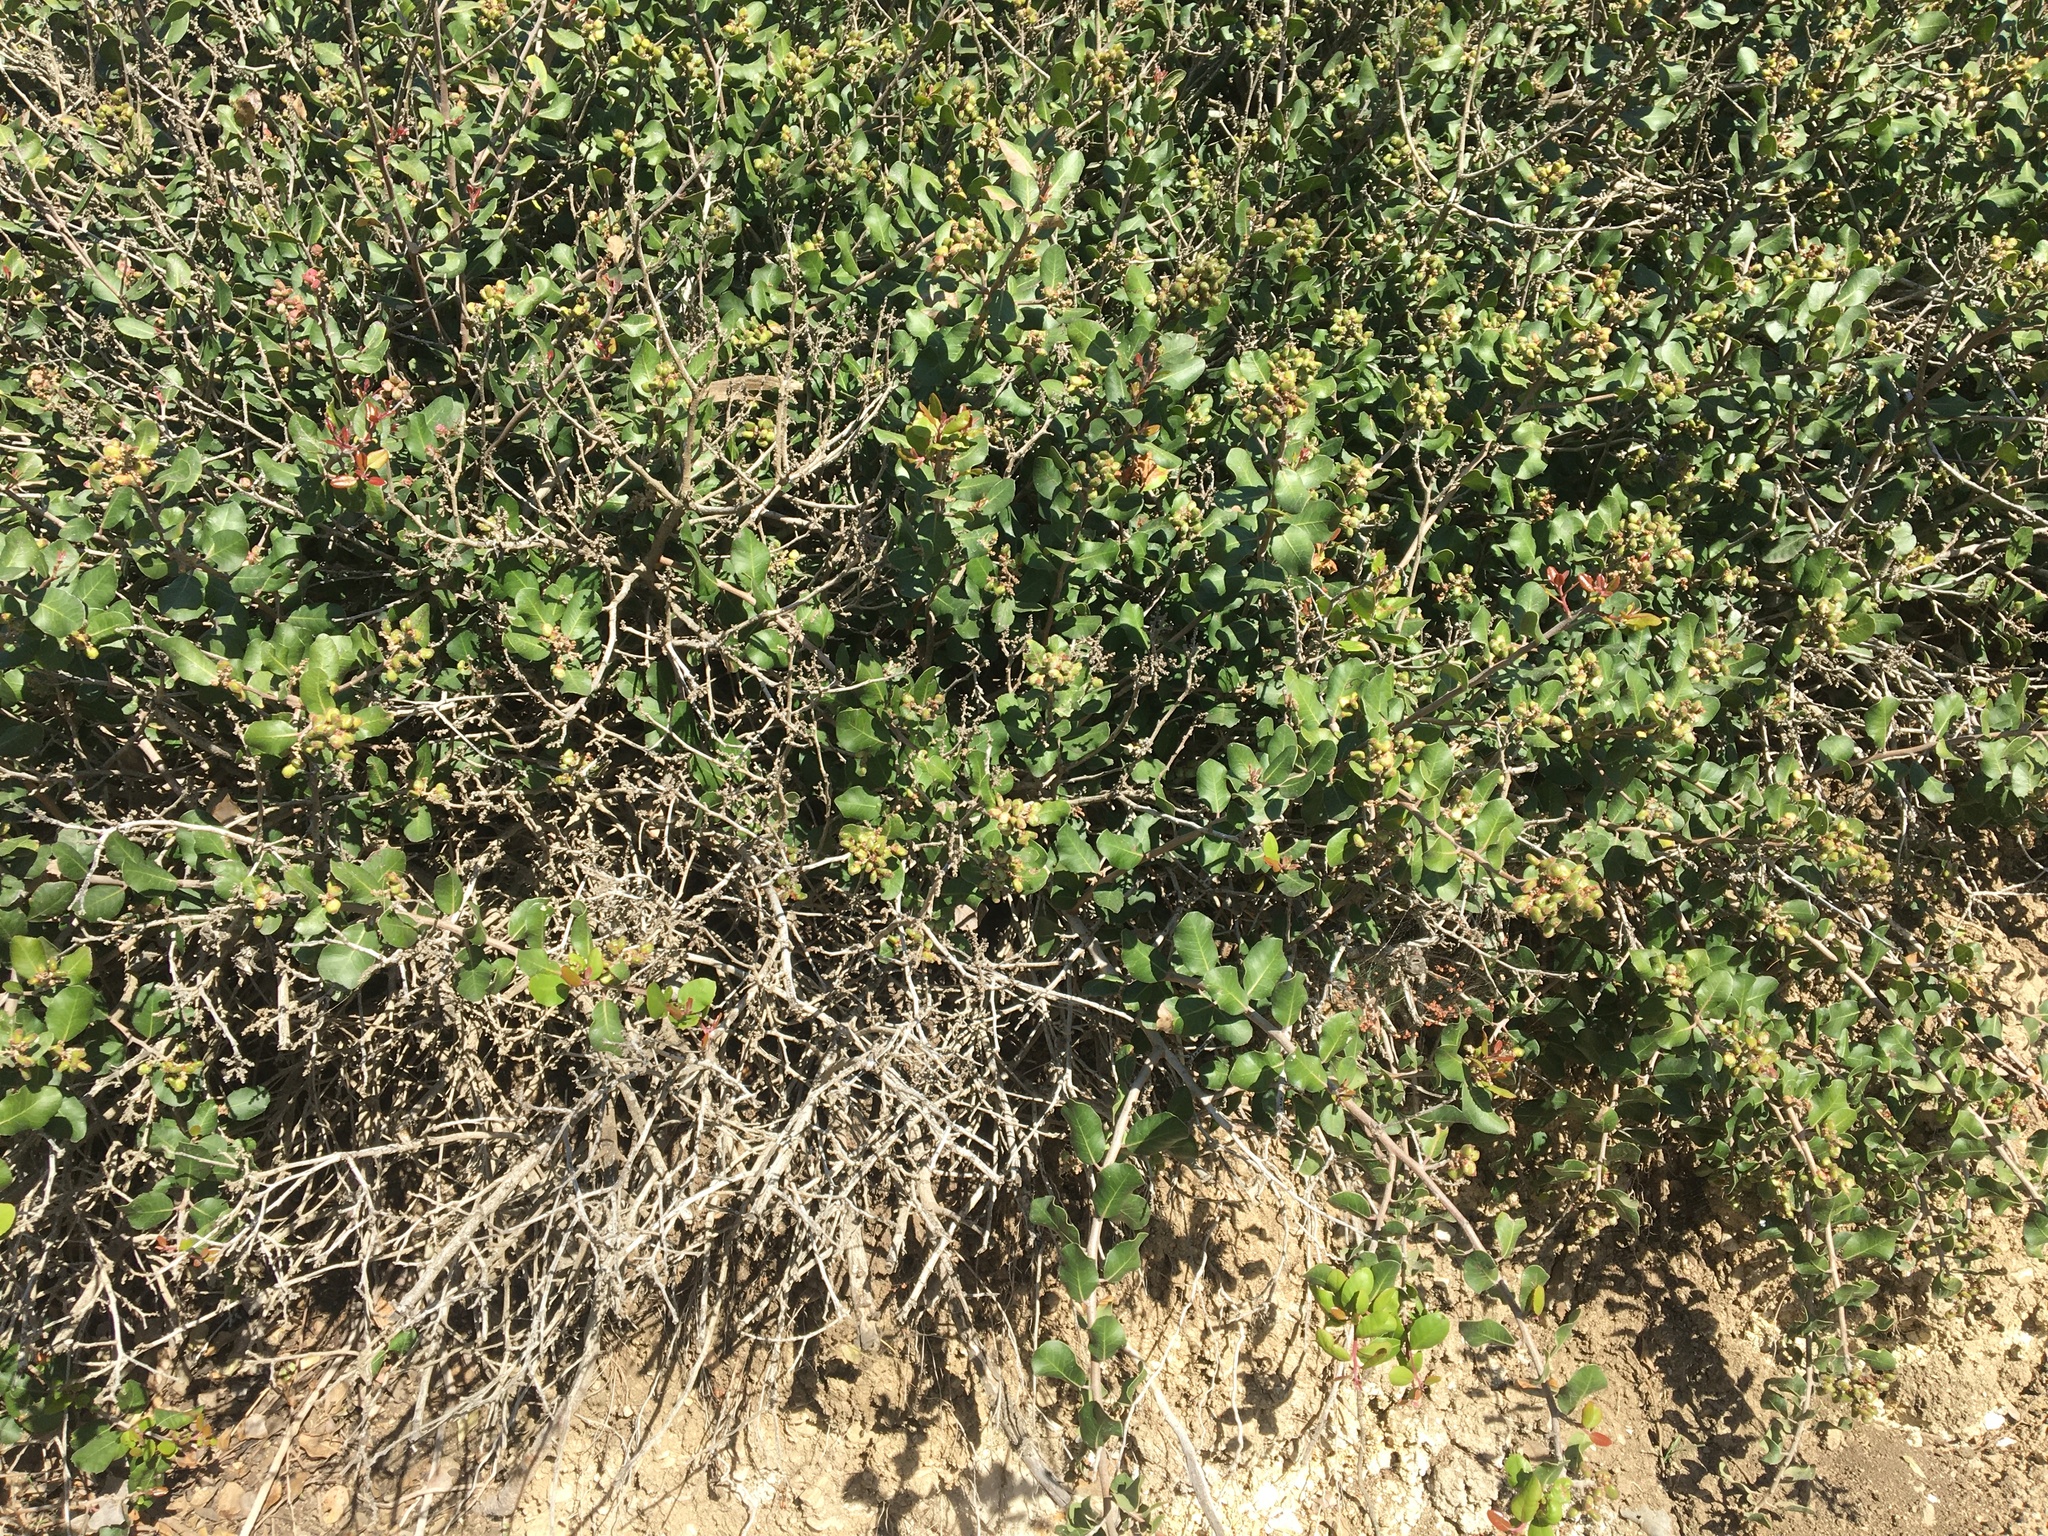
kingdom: Plantae
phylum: Tracheophyta
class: Magnoliopsida
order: Sapindales
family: Anacardiaceae
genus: Rhus
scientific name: Rhus integrifolia
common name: Lemonade sumac
